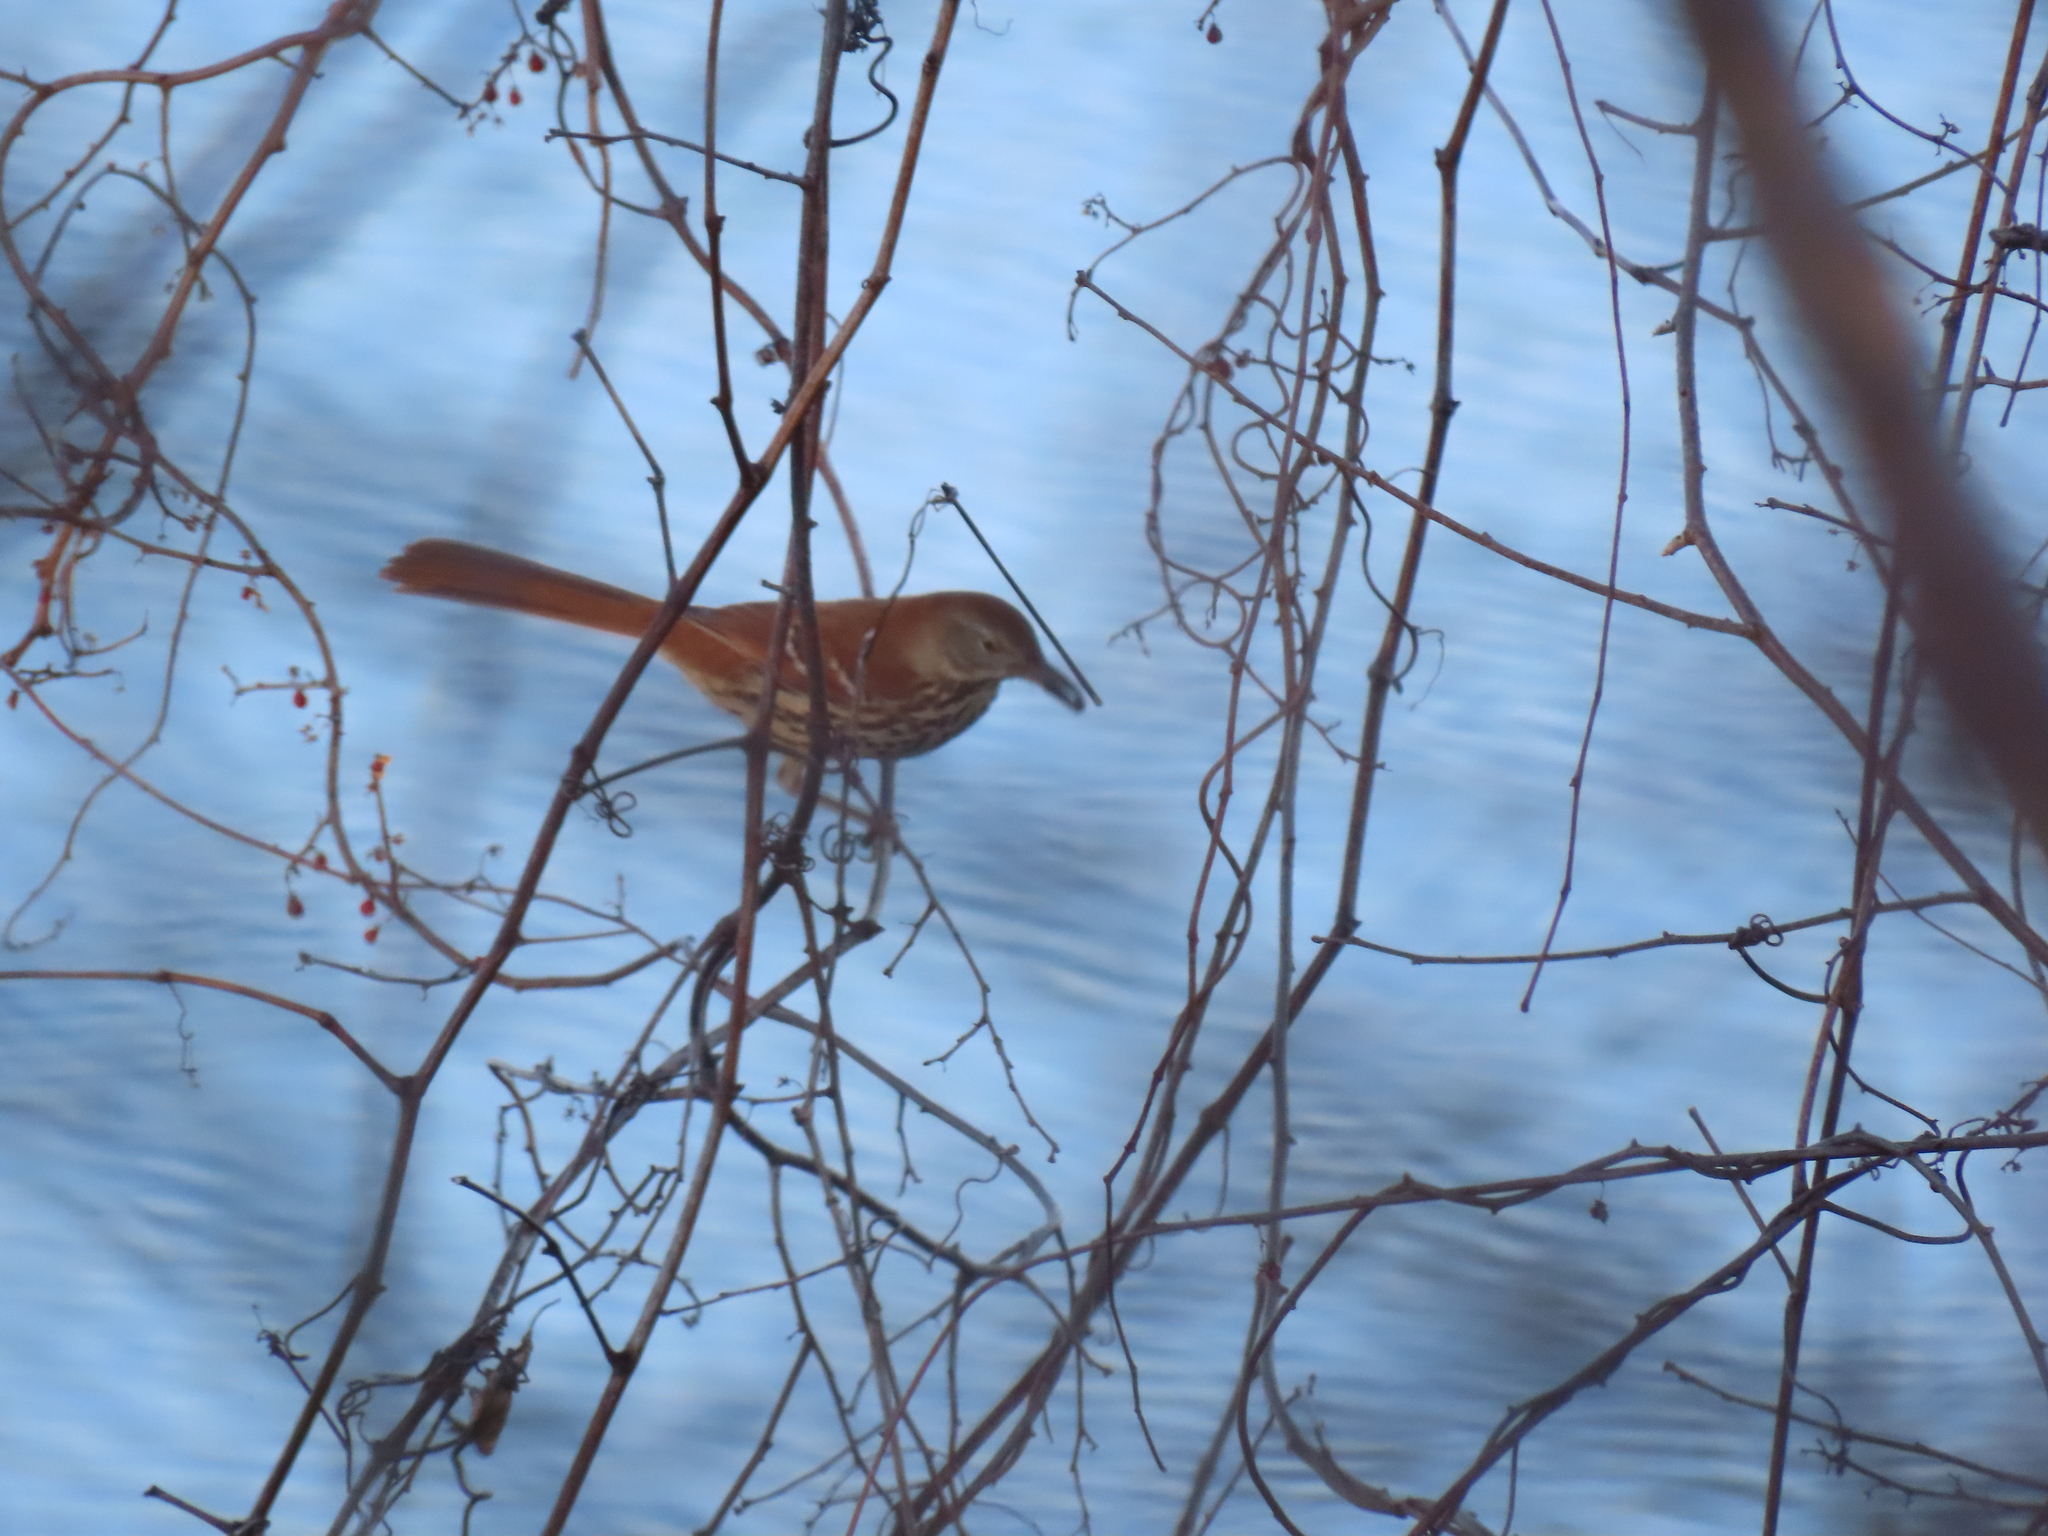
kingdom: Animalia
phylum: Chordata
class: Aves
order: Passeriformes
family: Mimidae
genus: Toxostoma
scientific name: Toxostoma rufum
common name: Brown thrasher
